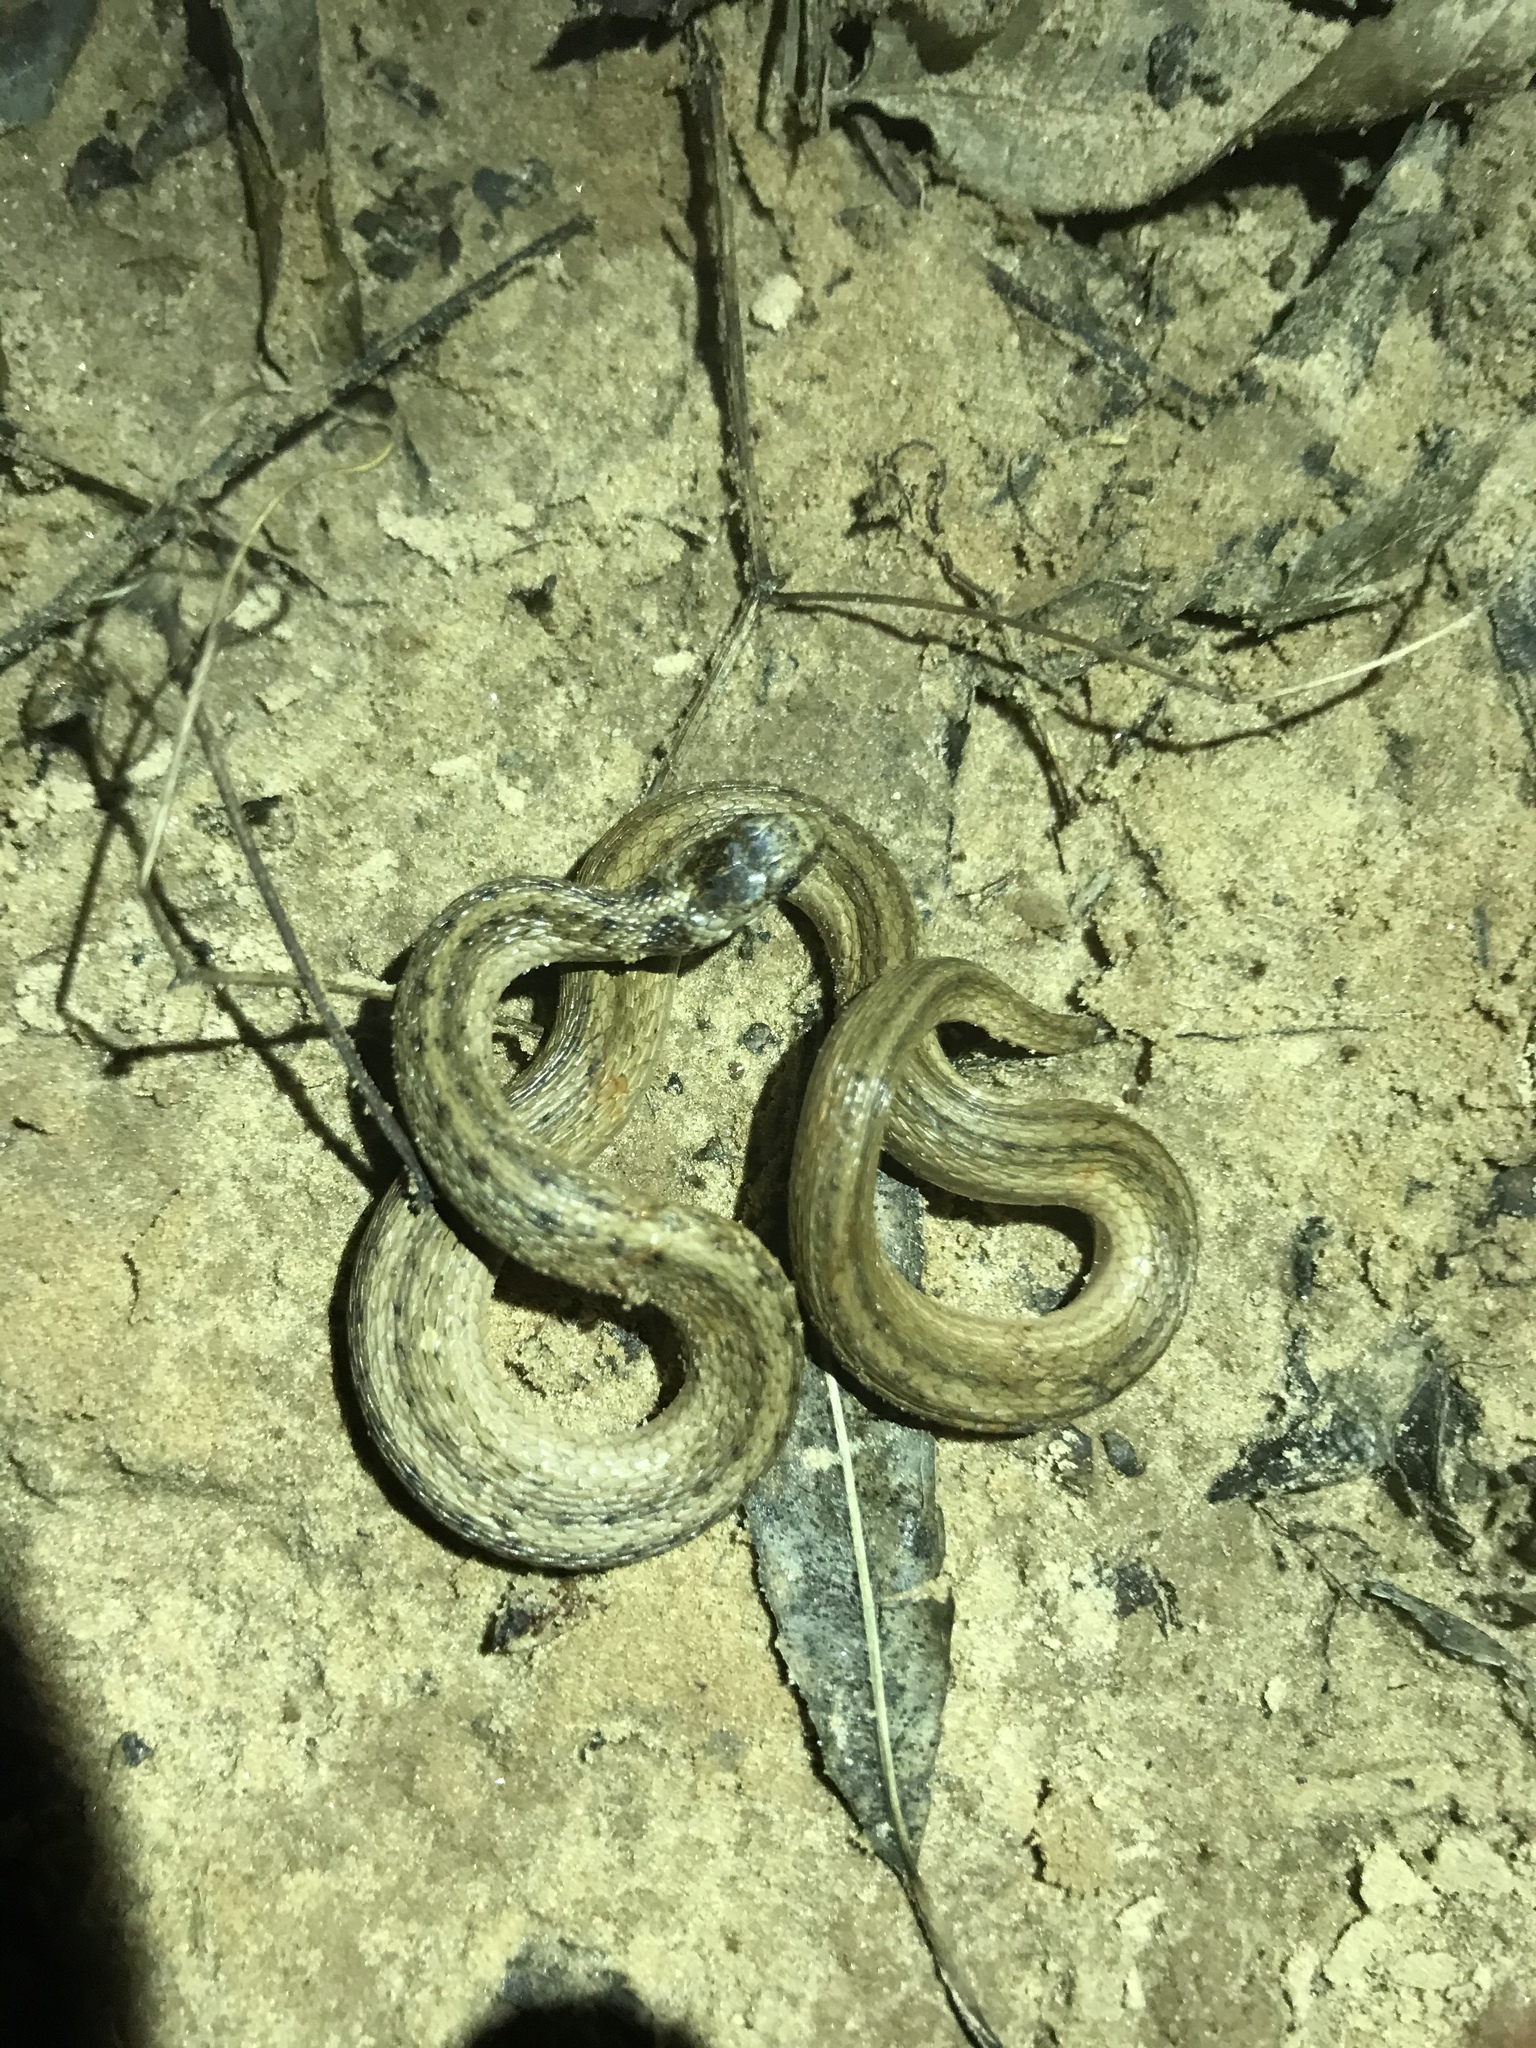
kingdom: Animalia
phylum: Chordata
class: Squamata
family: Colubridae
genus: Storeria
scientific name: Storeria dekayi
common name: (dekay’s) brown snake
